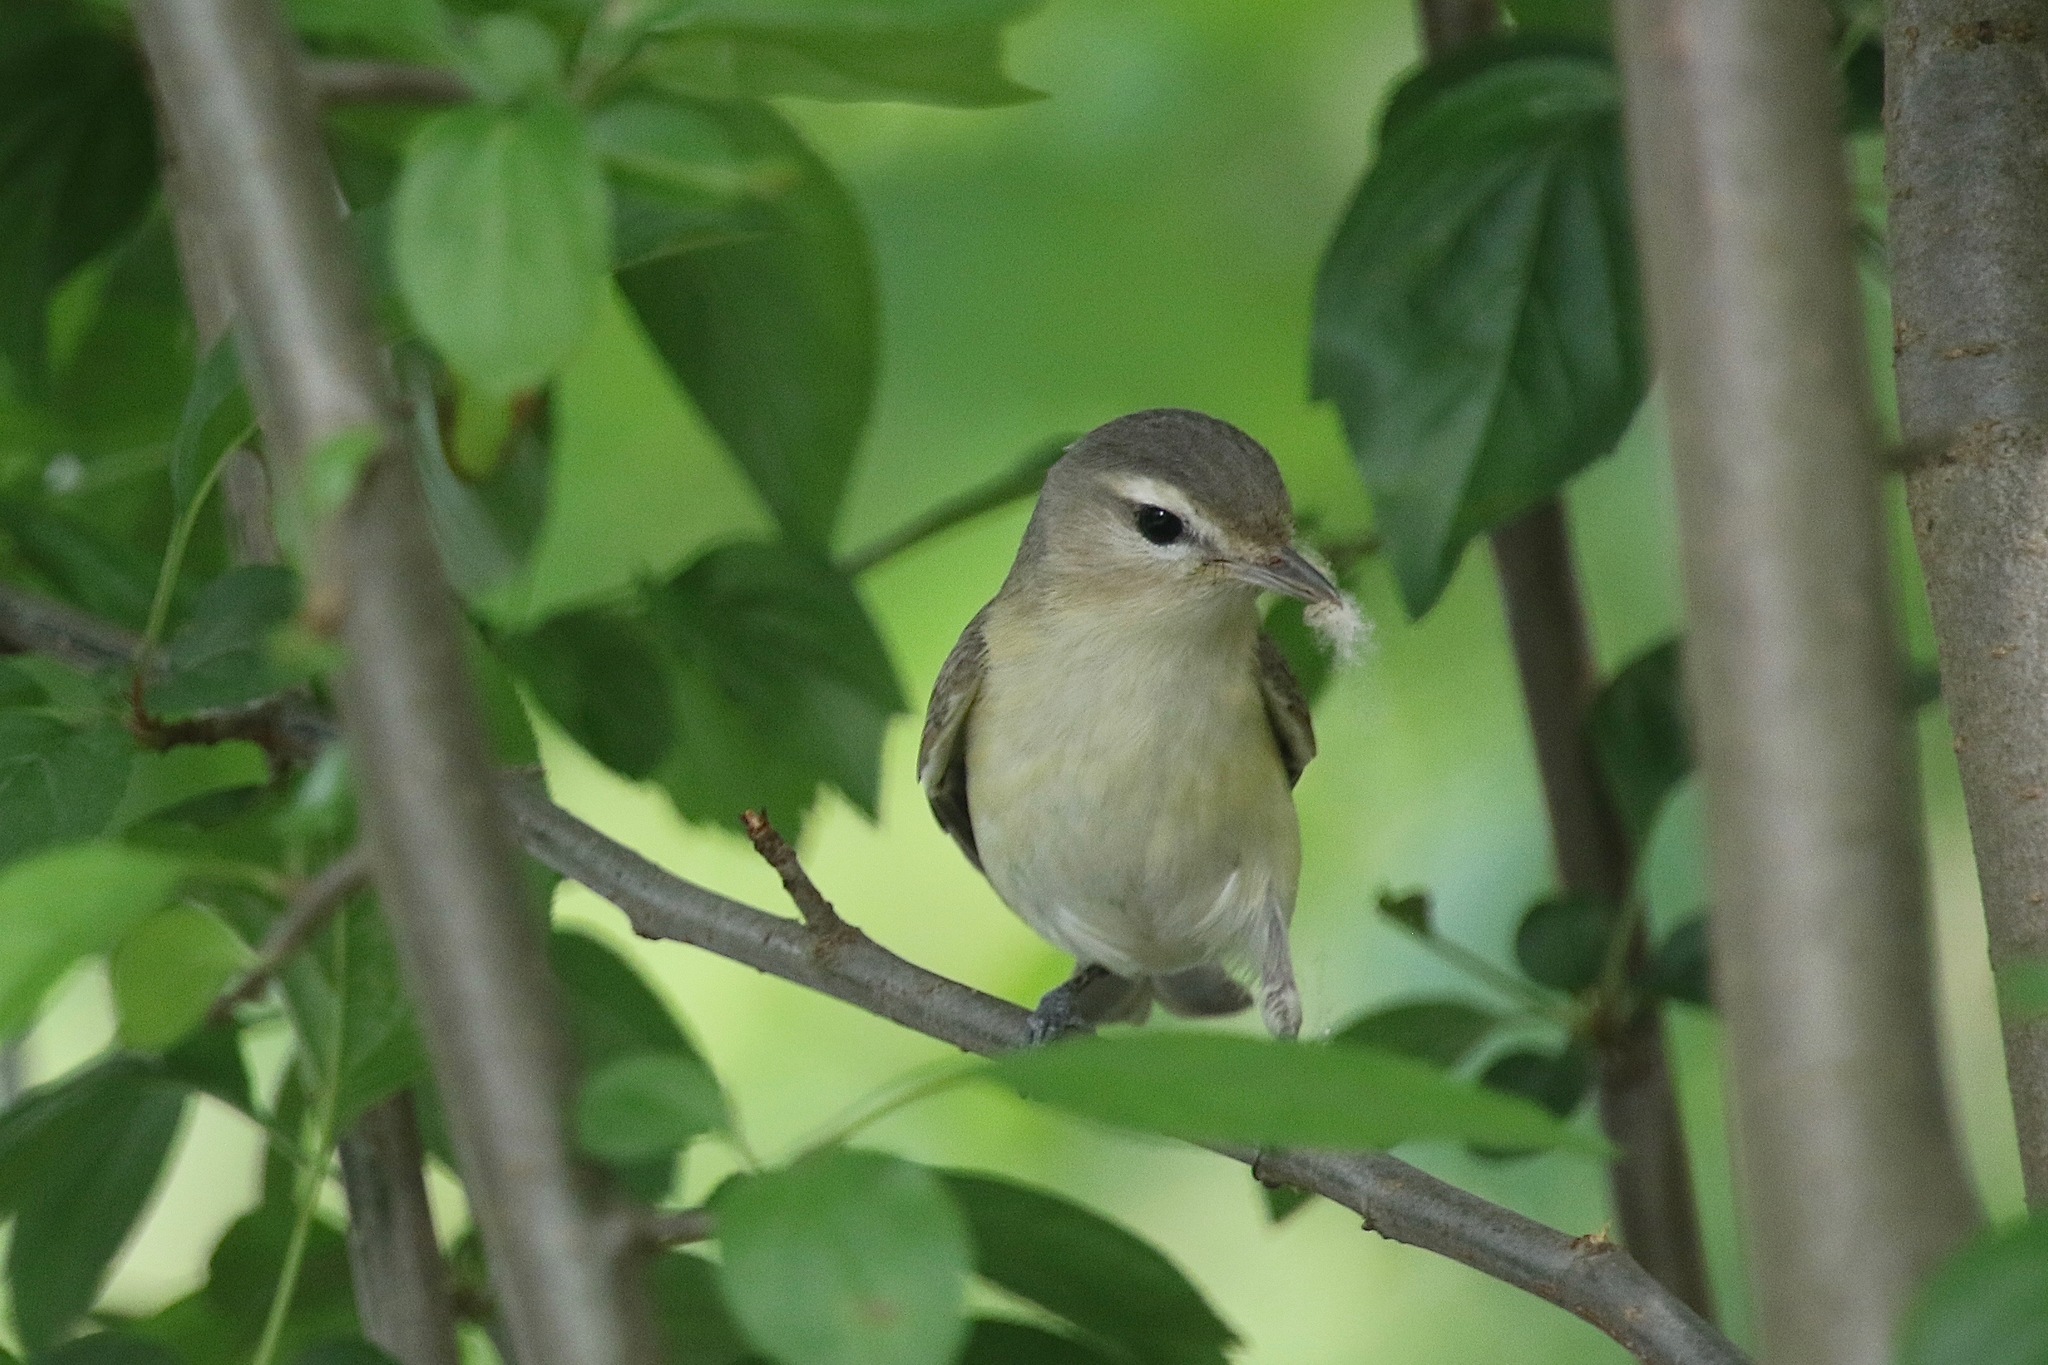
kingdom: Animalia
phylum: Chordata
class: Aves
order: Passeriformes
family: Vireonidae
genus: Vireo
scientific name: Vireo gilvus
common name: Warbling vireo
